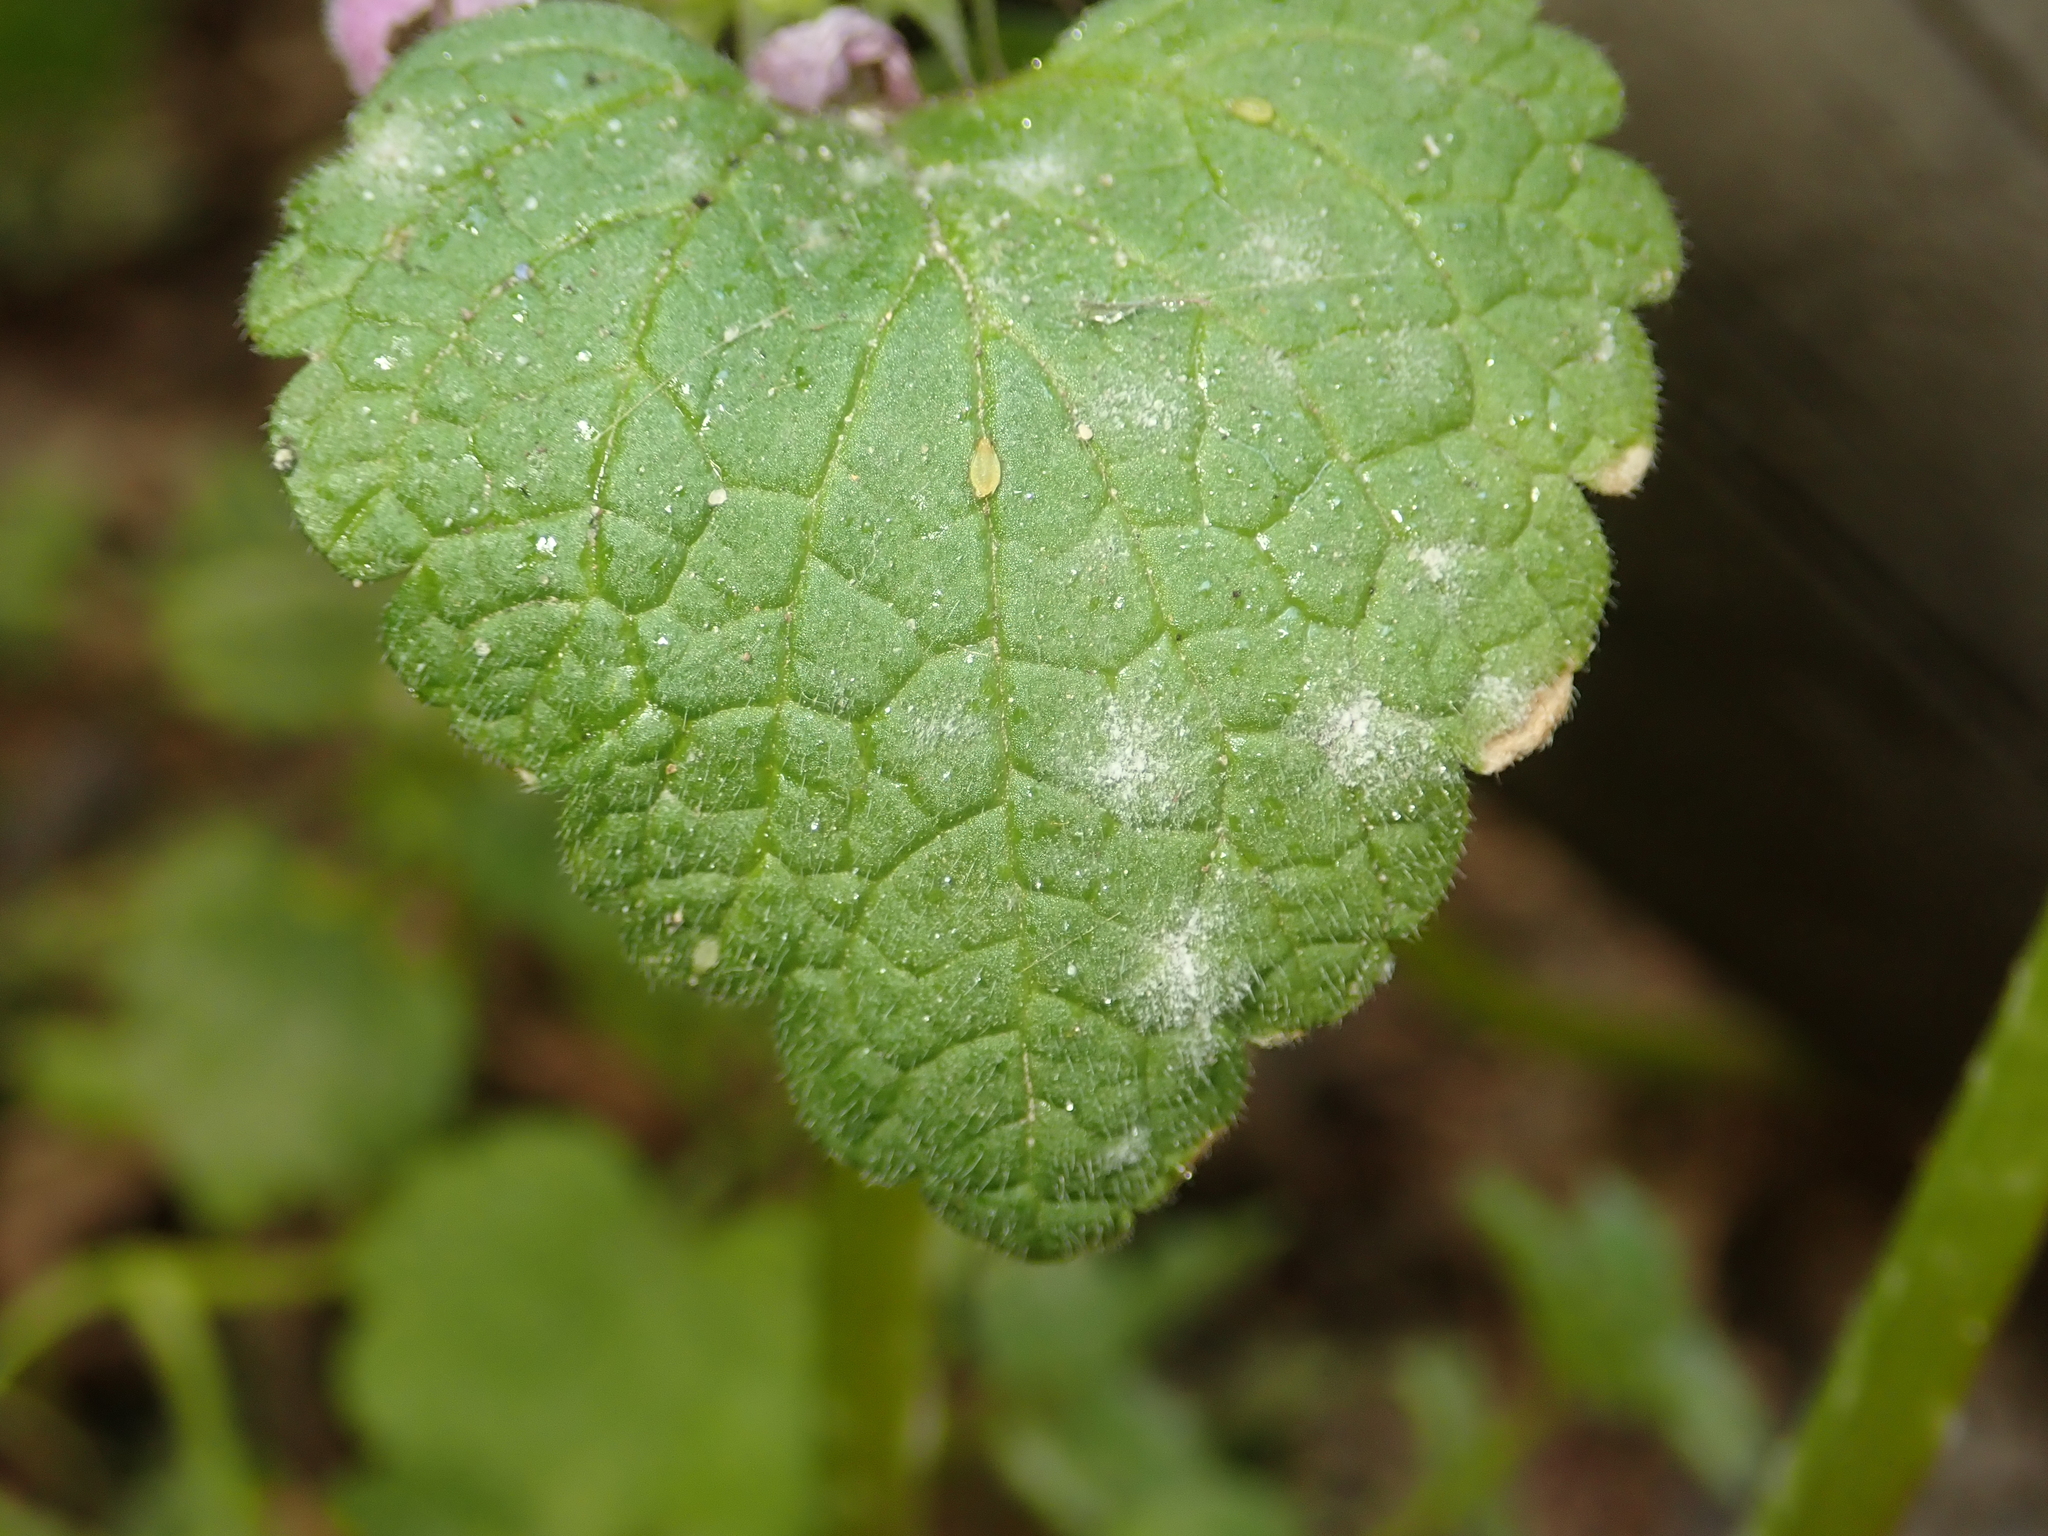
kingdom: Fungi
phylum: Ascomycota
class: Leotiomycetes
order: Helotiales
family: Erysiphaceae
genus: Neoerysiphe
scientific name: Neoerysiphe galeopsidis
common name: Mint mildew
